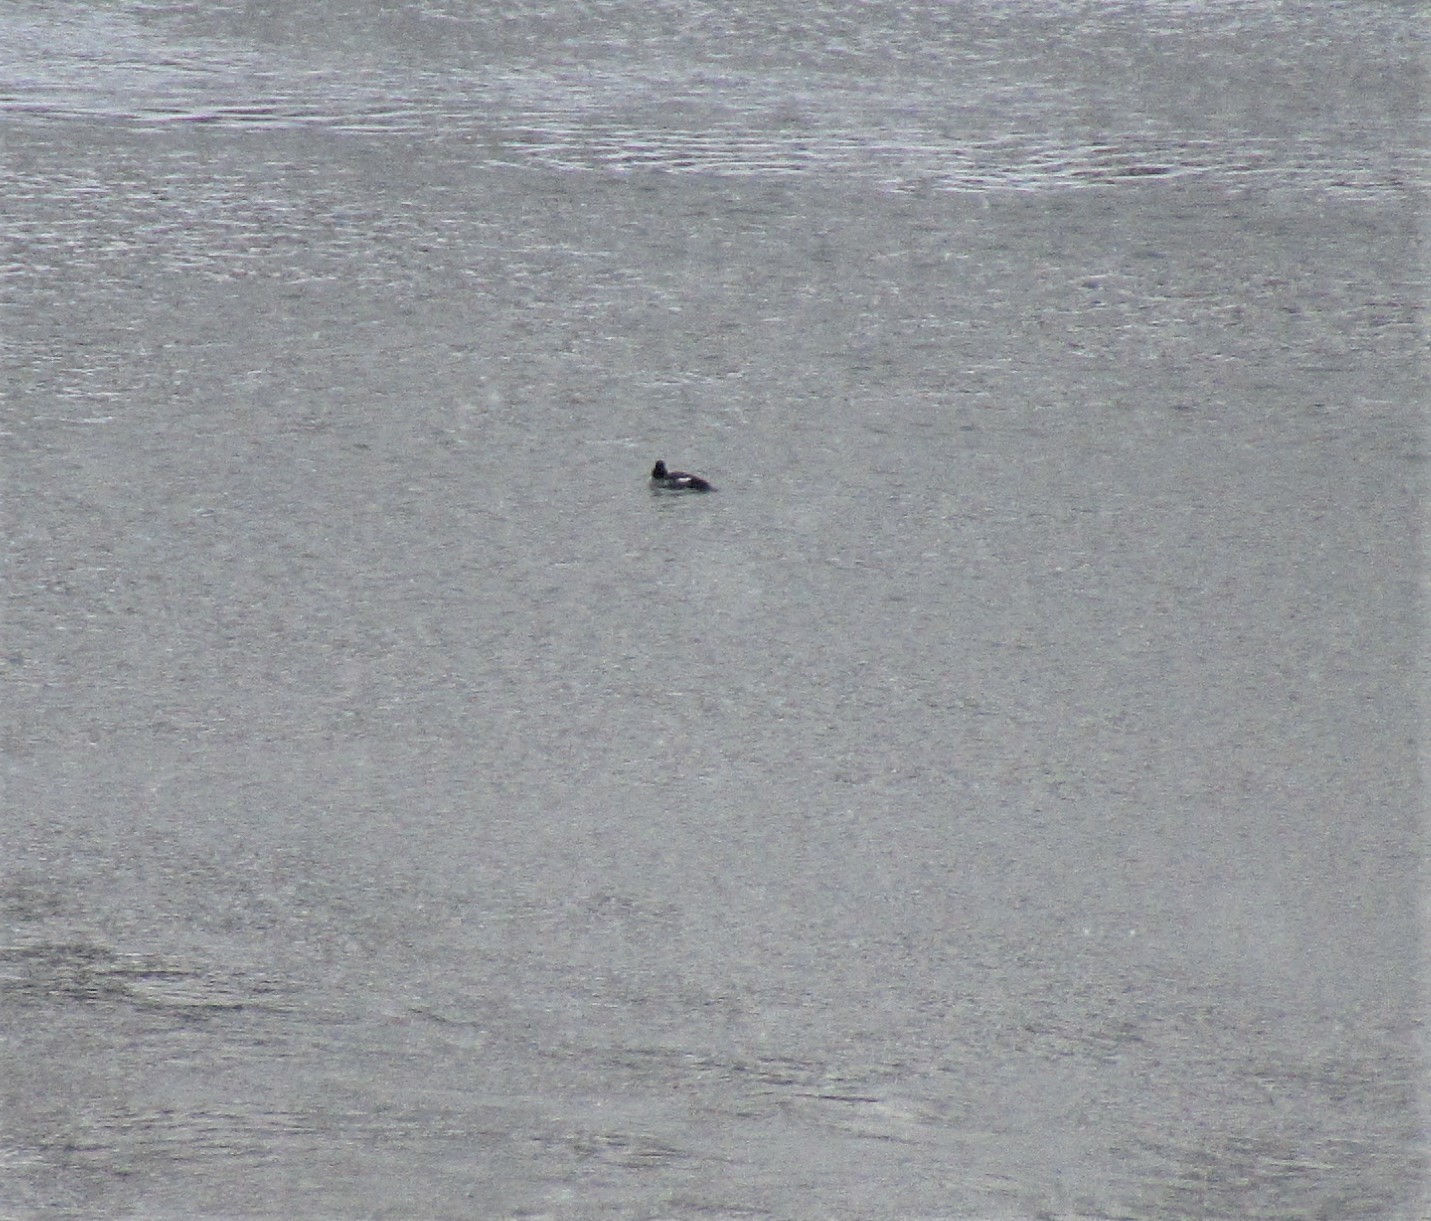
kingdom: Animalia
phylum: Chordata
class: Aves
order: Anseriformes
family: Anatidae
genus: Bucephala
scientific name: Bucephala clangula
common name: Common goldeneye
